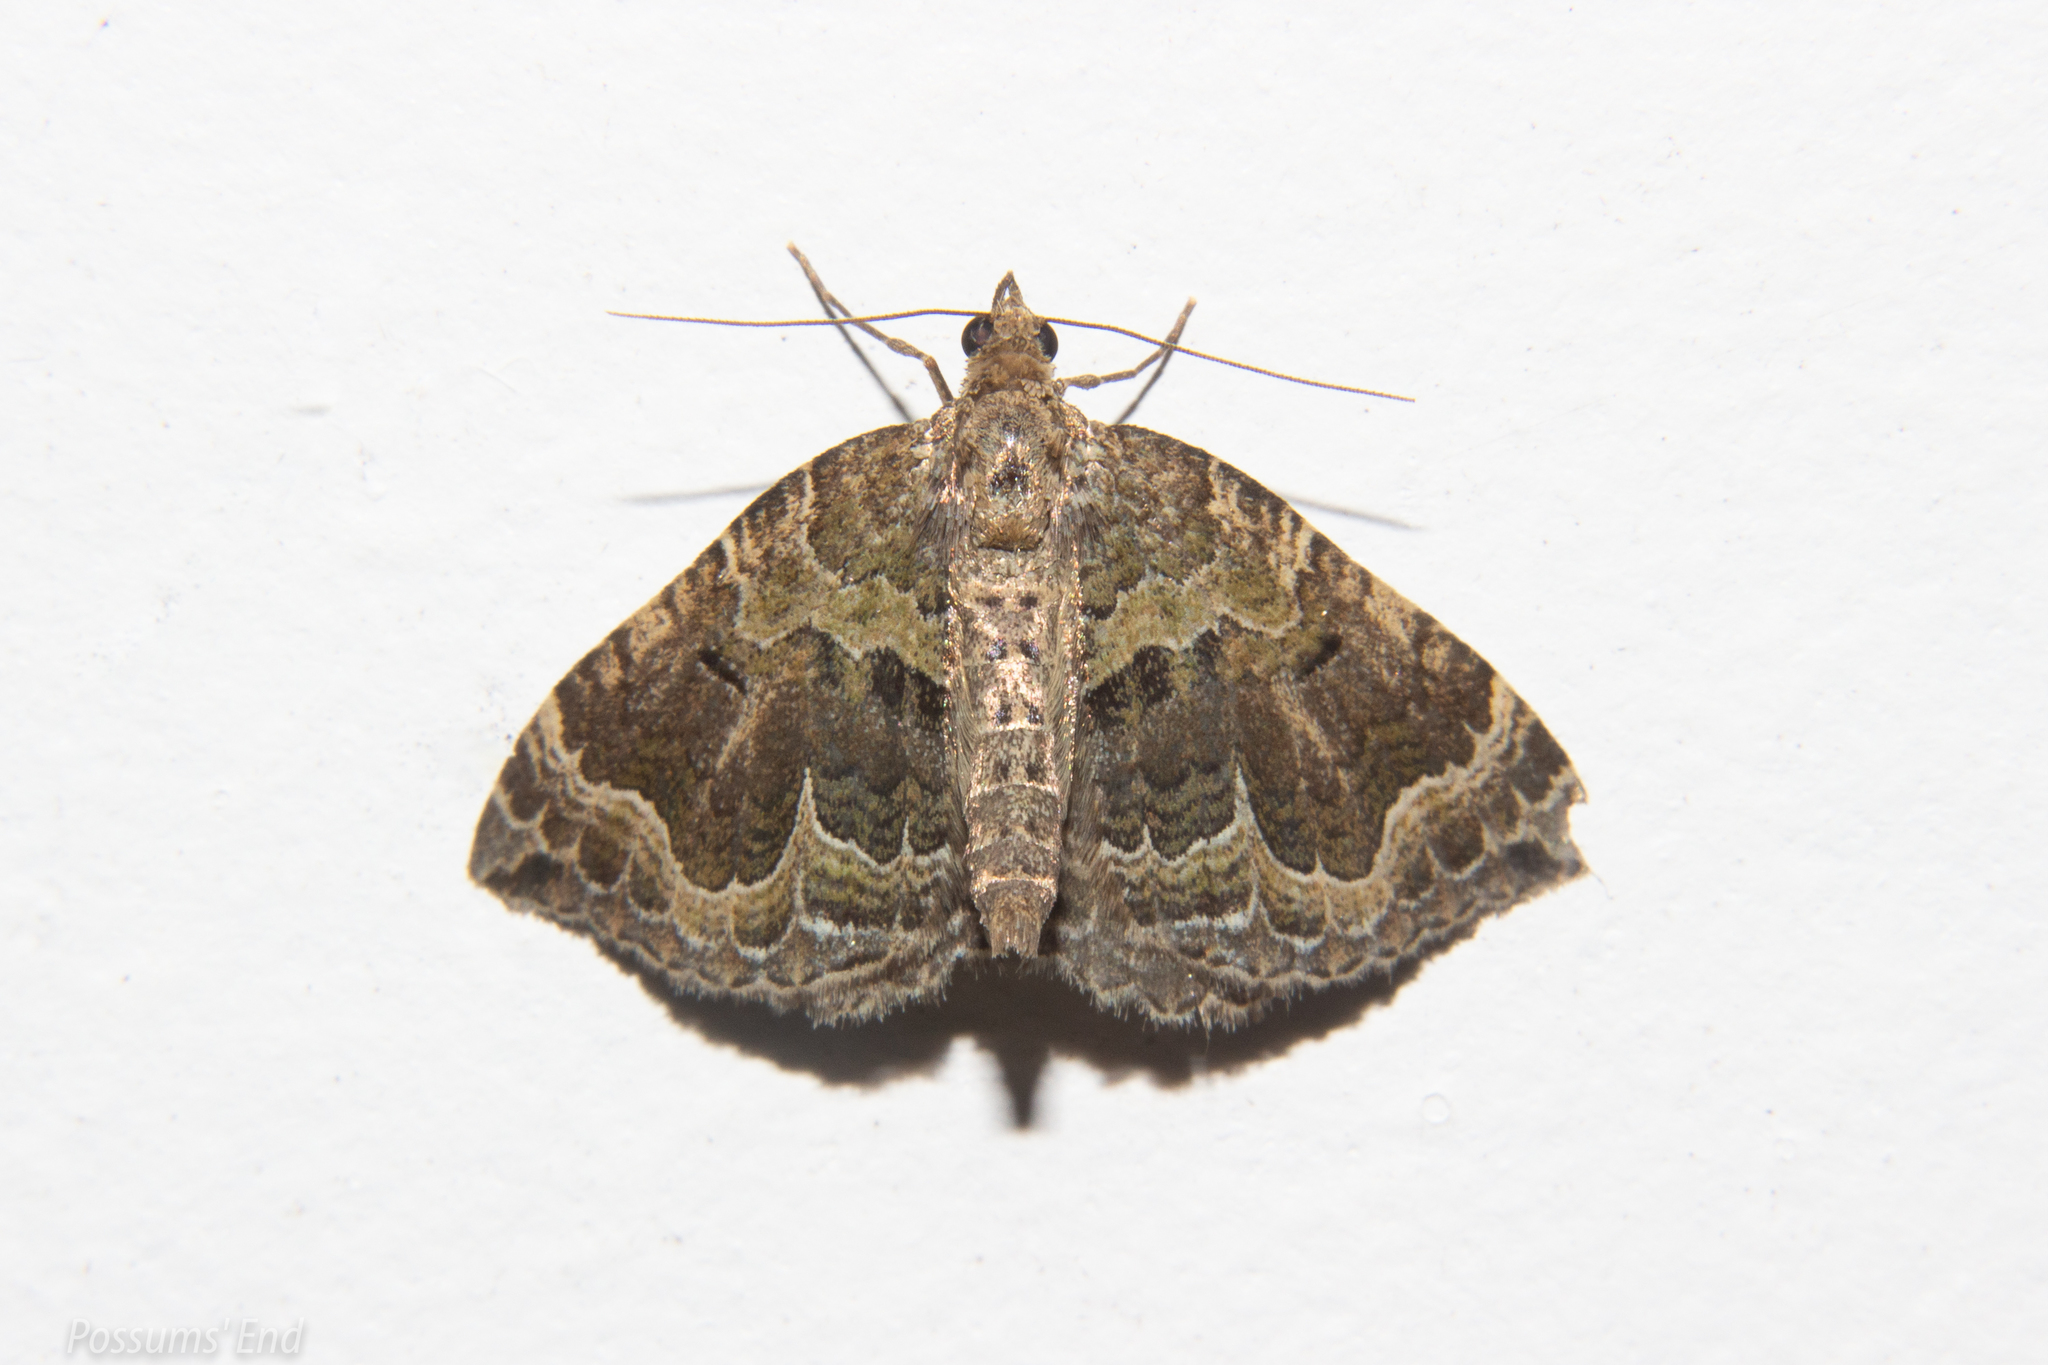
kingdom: Animalia
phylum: Arthropoda
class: Insecta
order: Lepidoptera
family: Geometridae
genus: Hydriomena
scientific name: Hydriomena rixata
